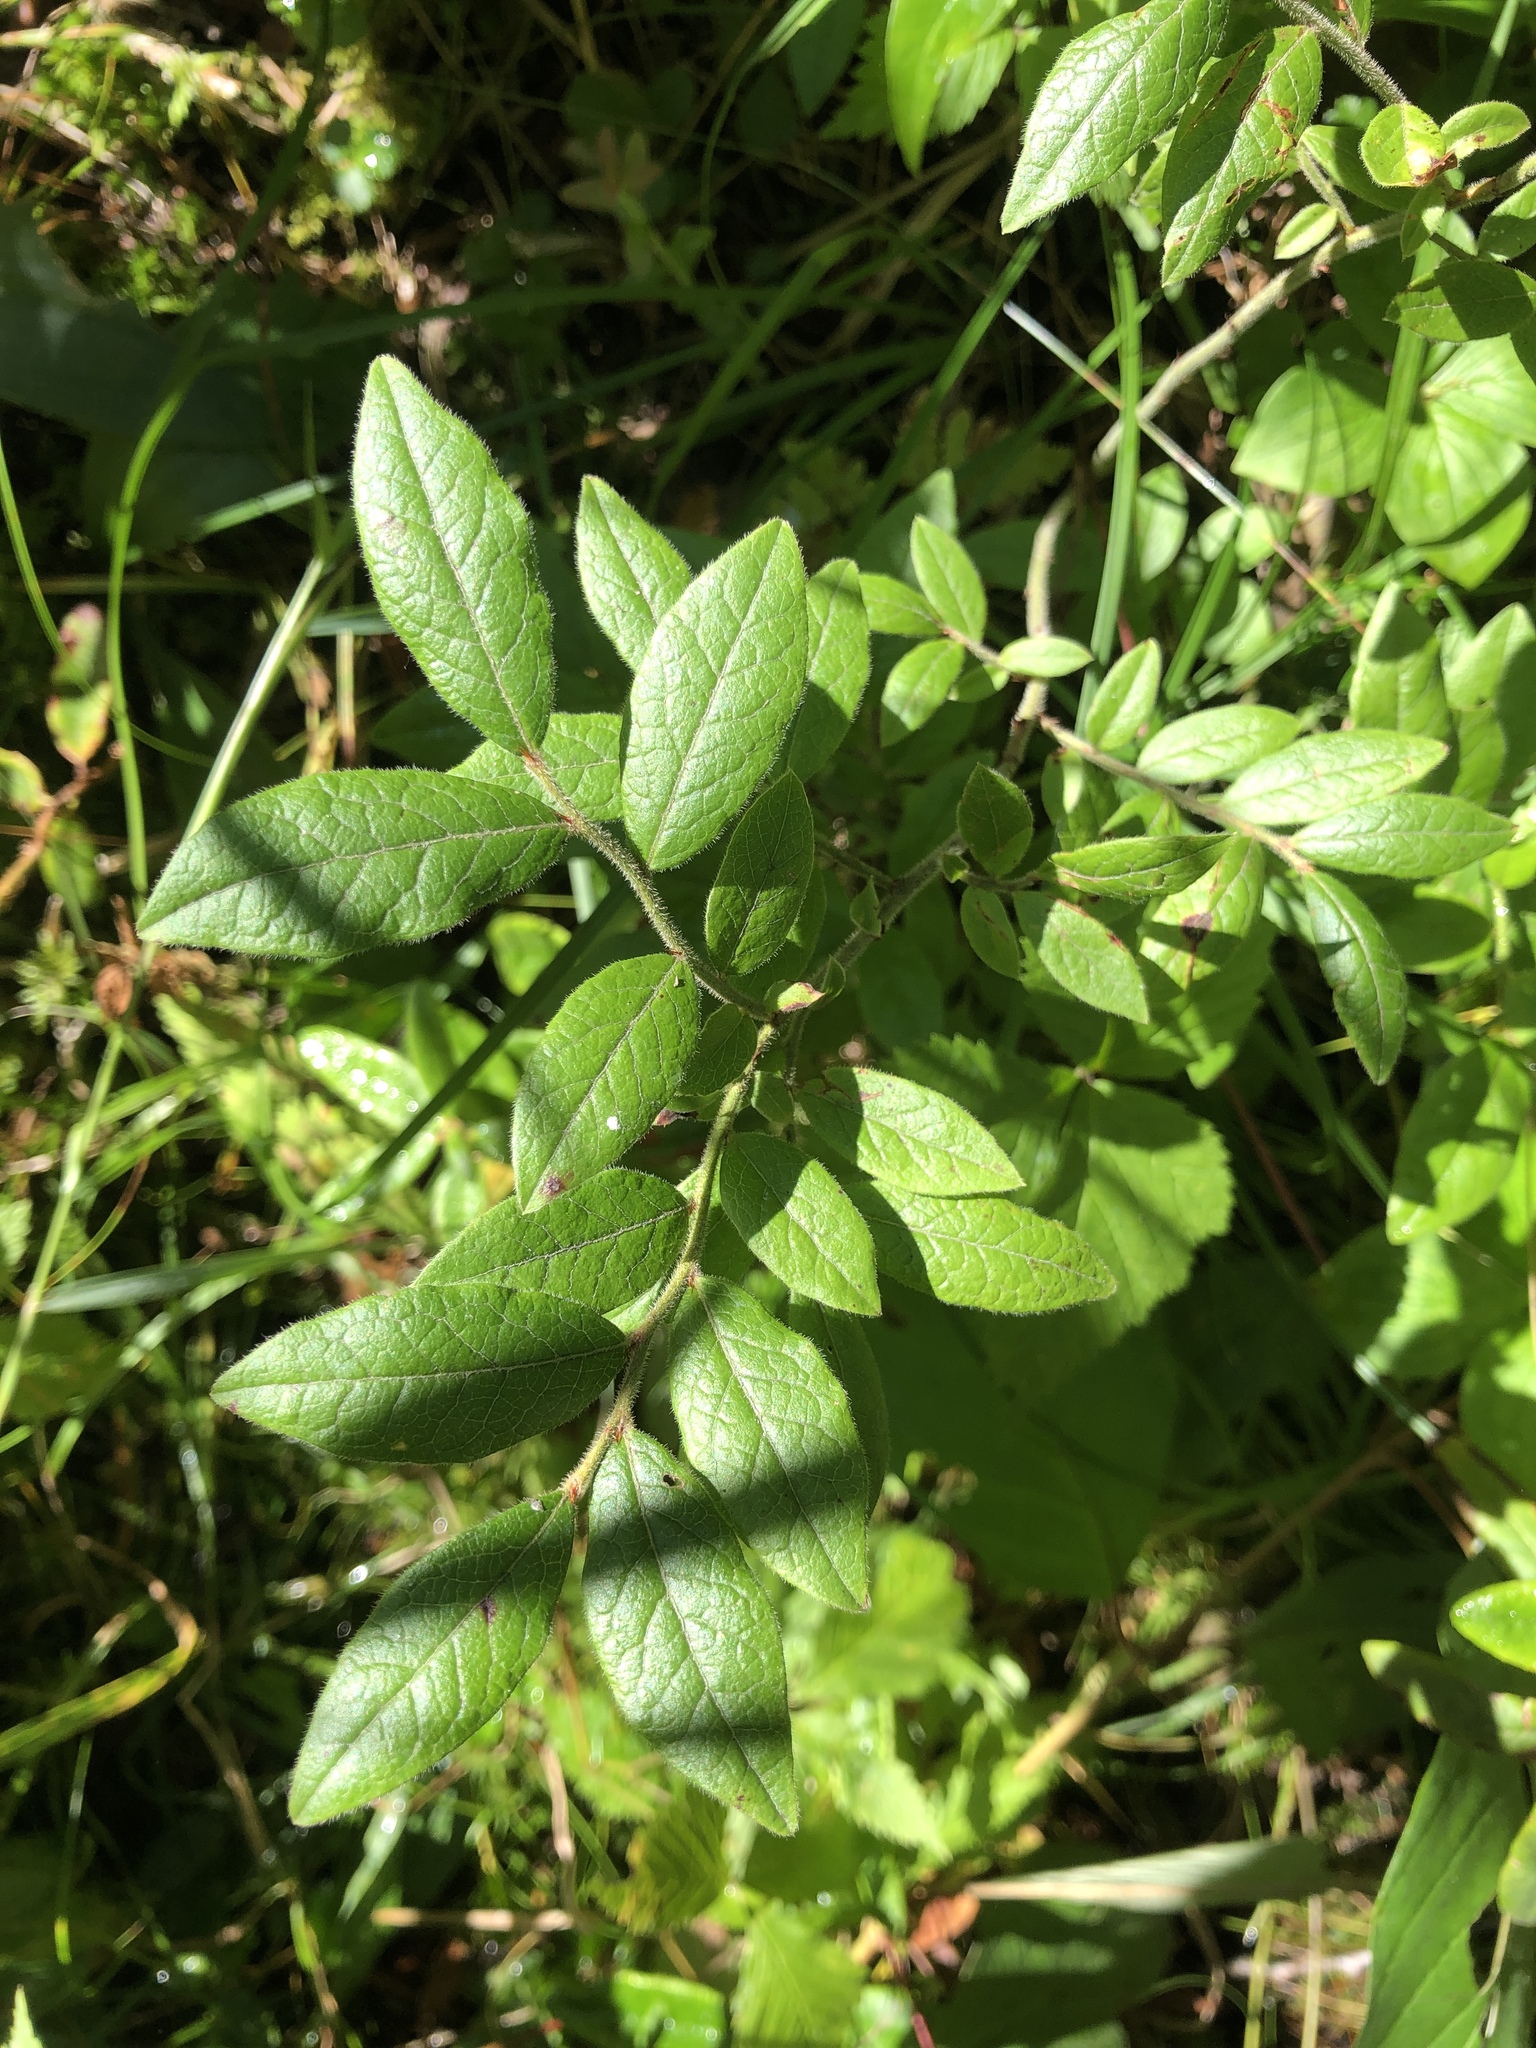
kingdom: Plantae
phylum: Tracheophyta
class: Magnoliopsida
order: Ericales
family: Ericaceae
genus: Vaccinium
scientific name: Vaccinium myrtilloides
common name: Canada blueberry
